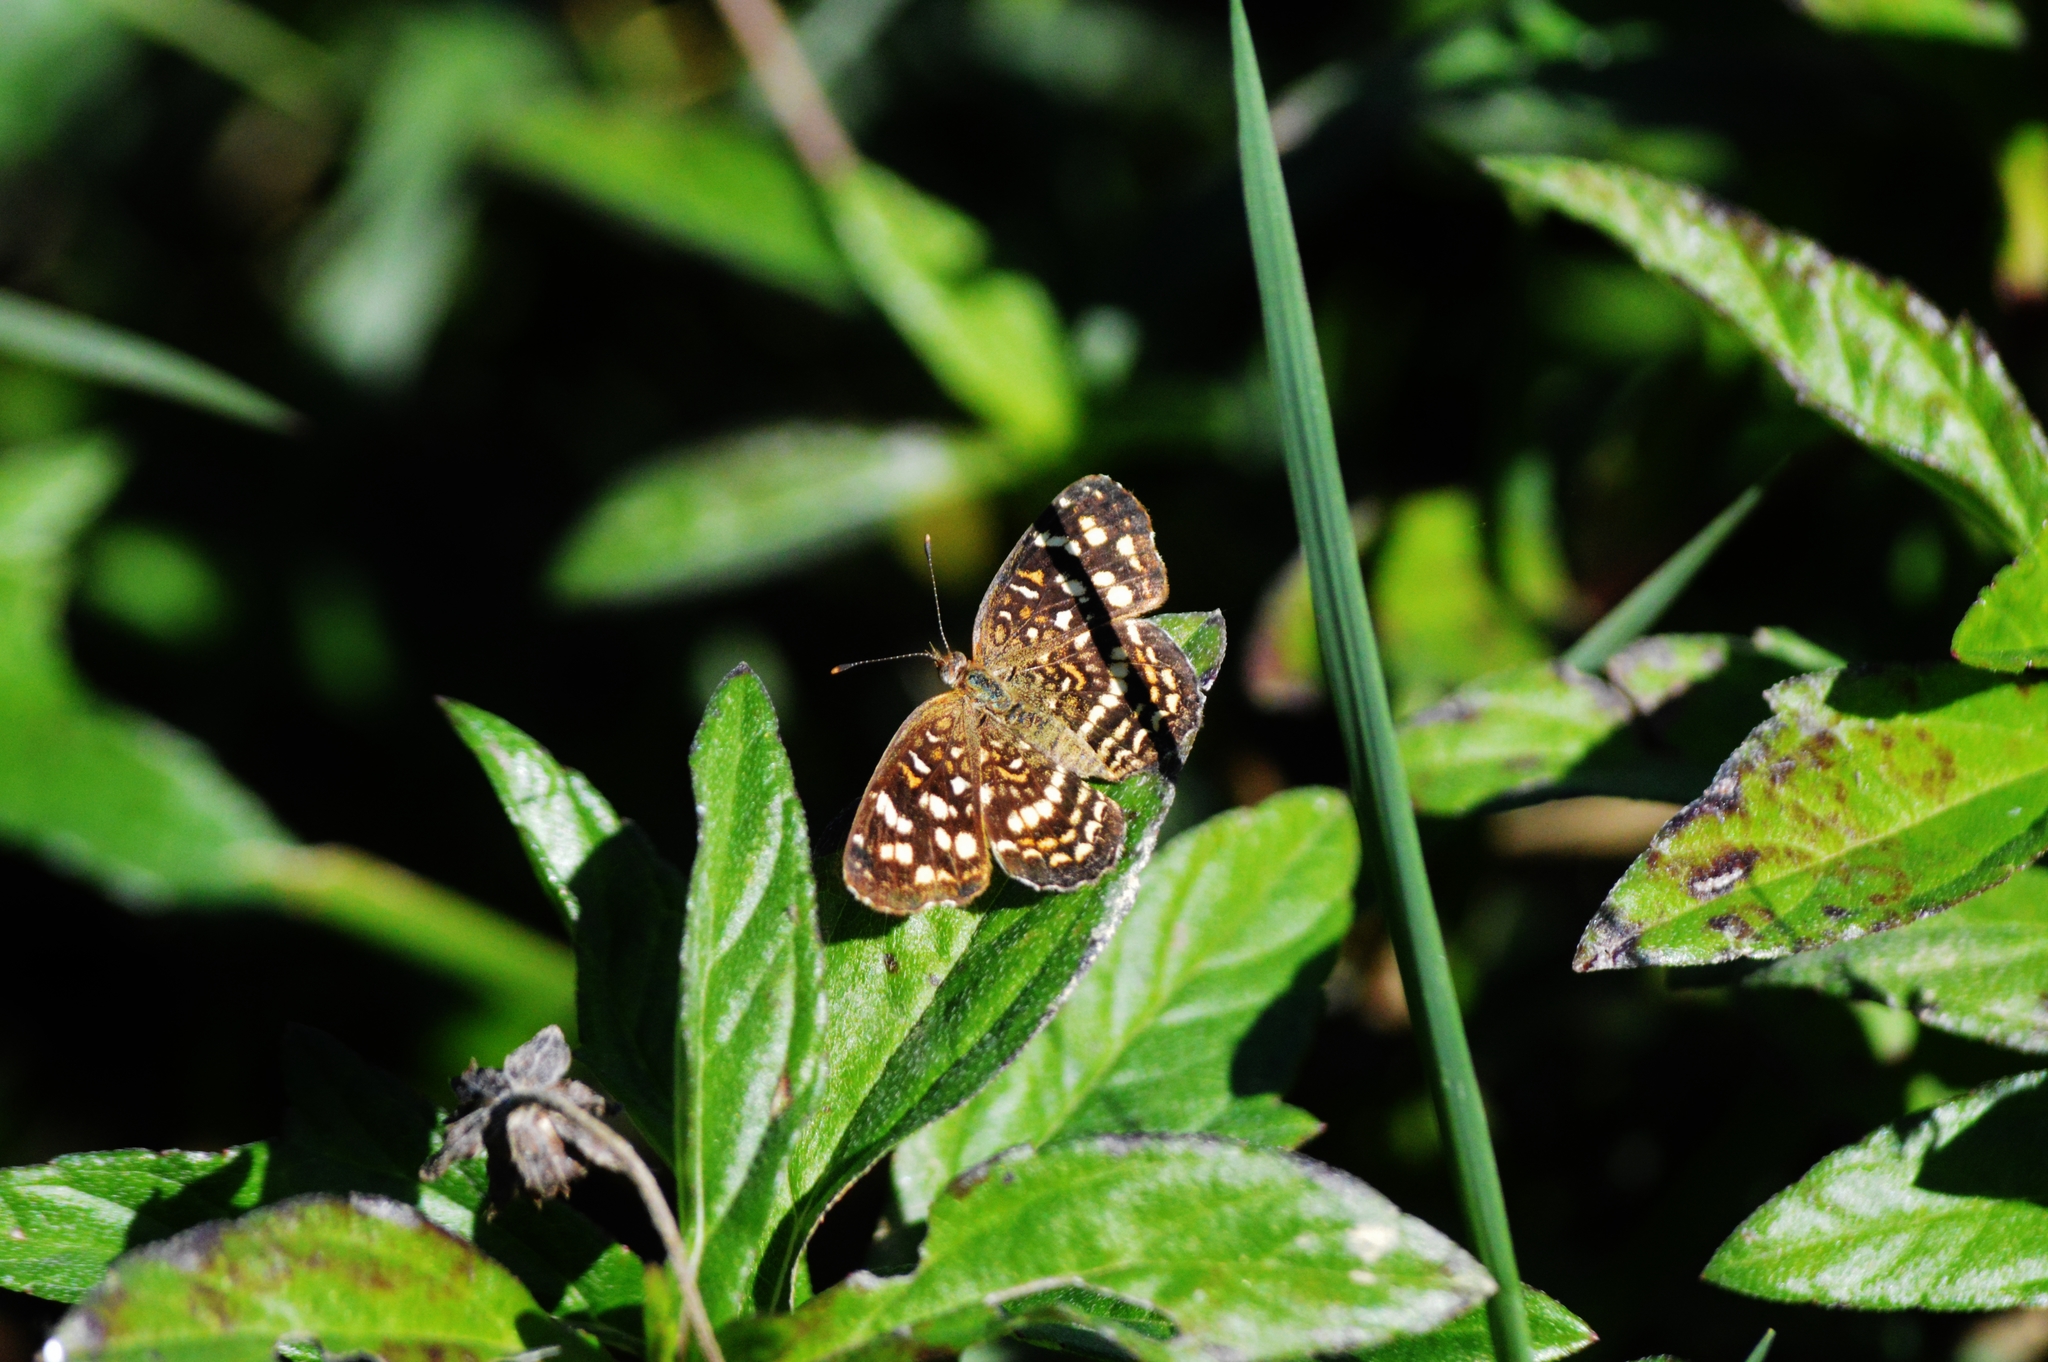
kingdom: Animalia
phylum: Arthropoda
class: Insecta
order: Lepidoptera
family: Nymphalidae
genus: Anthanassa
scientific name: Anthanassa hermas
